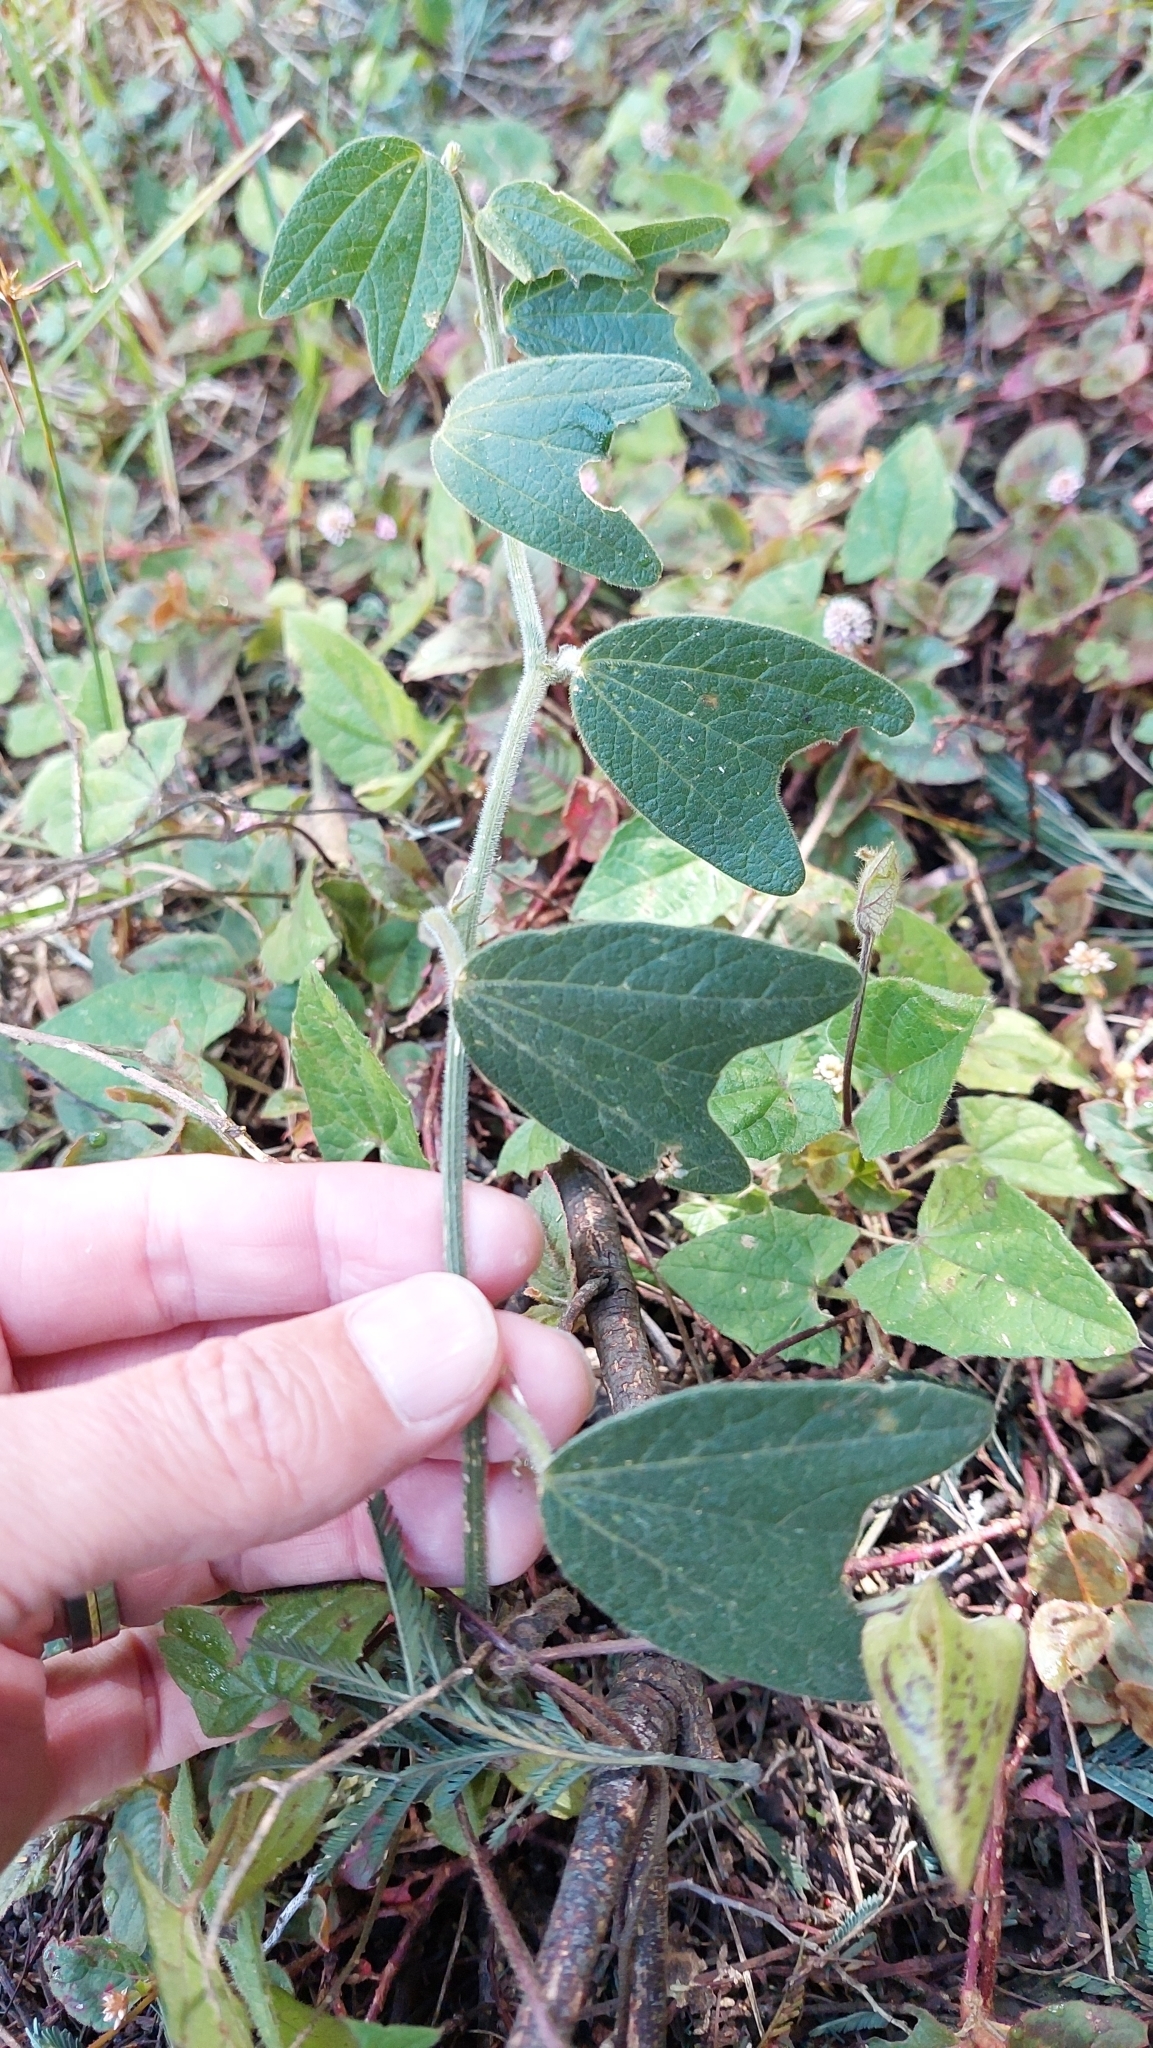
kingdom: Plantae
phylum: Tracheophyta
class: Magnoliopsida
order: Malpighiales
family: Passifloraceae
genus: Passiflora
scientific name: Passiflora bogotensis
